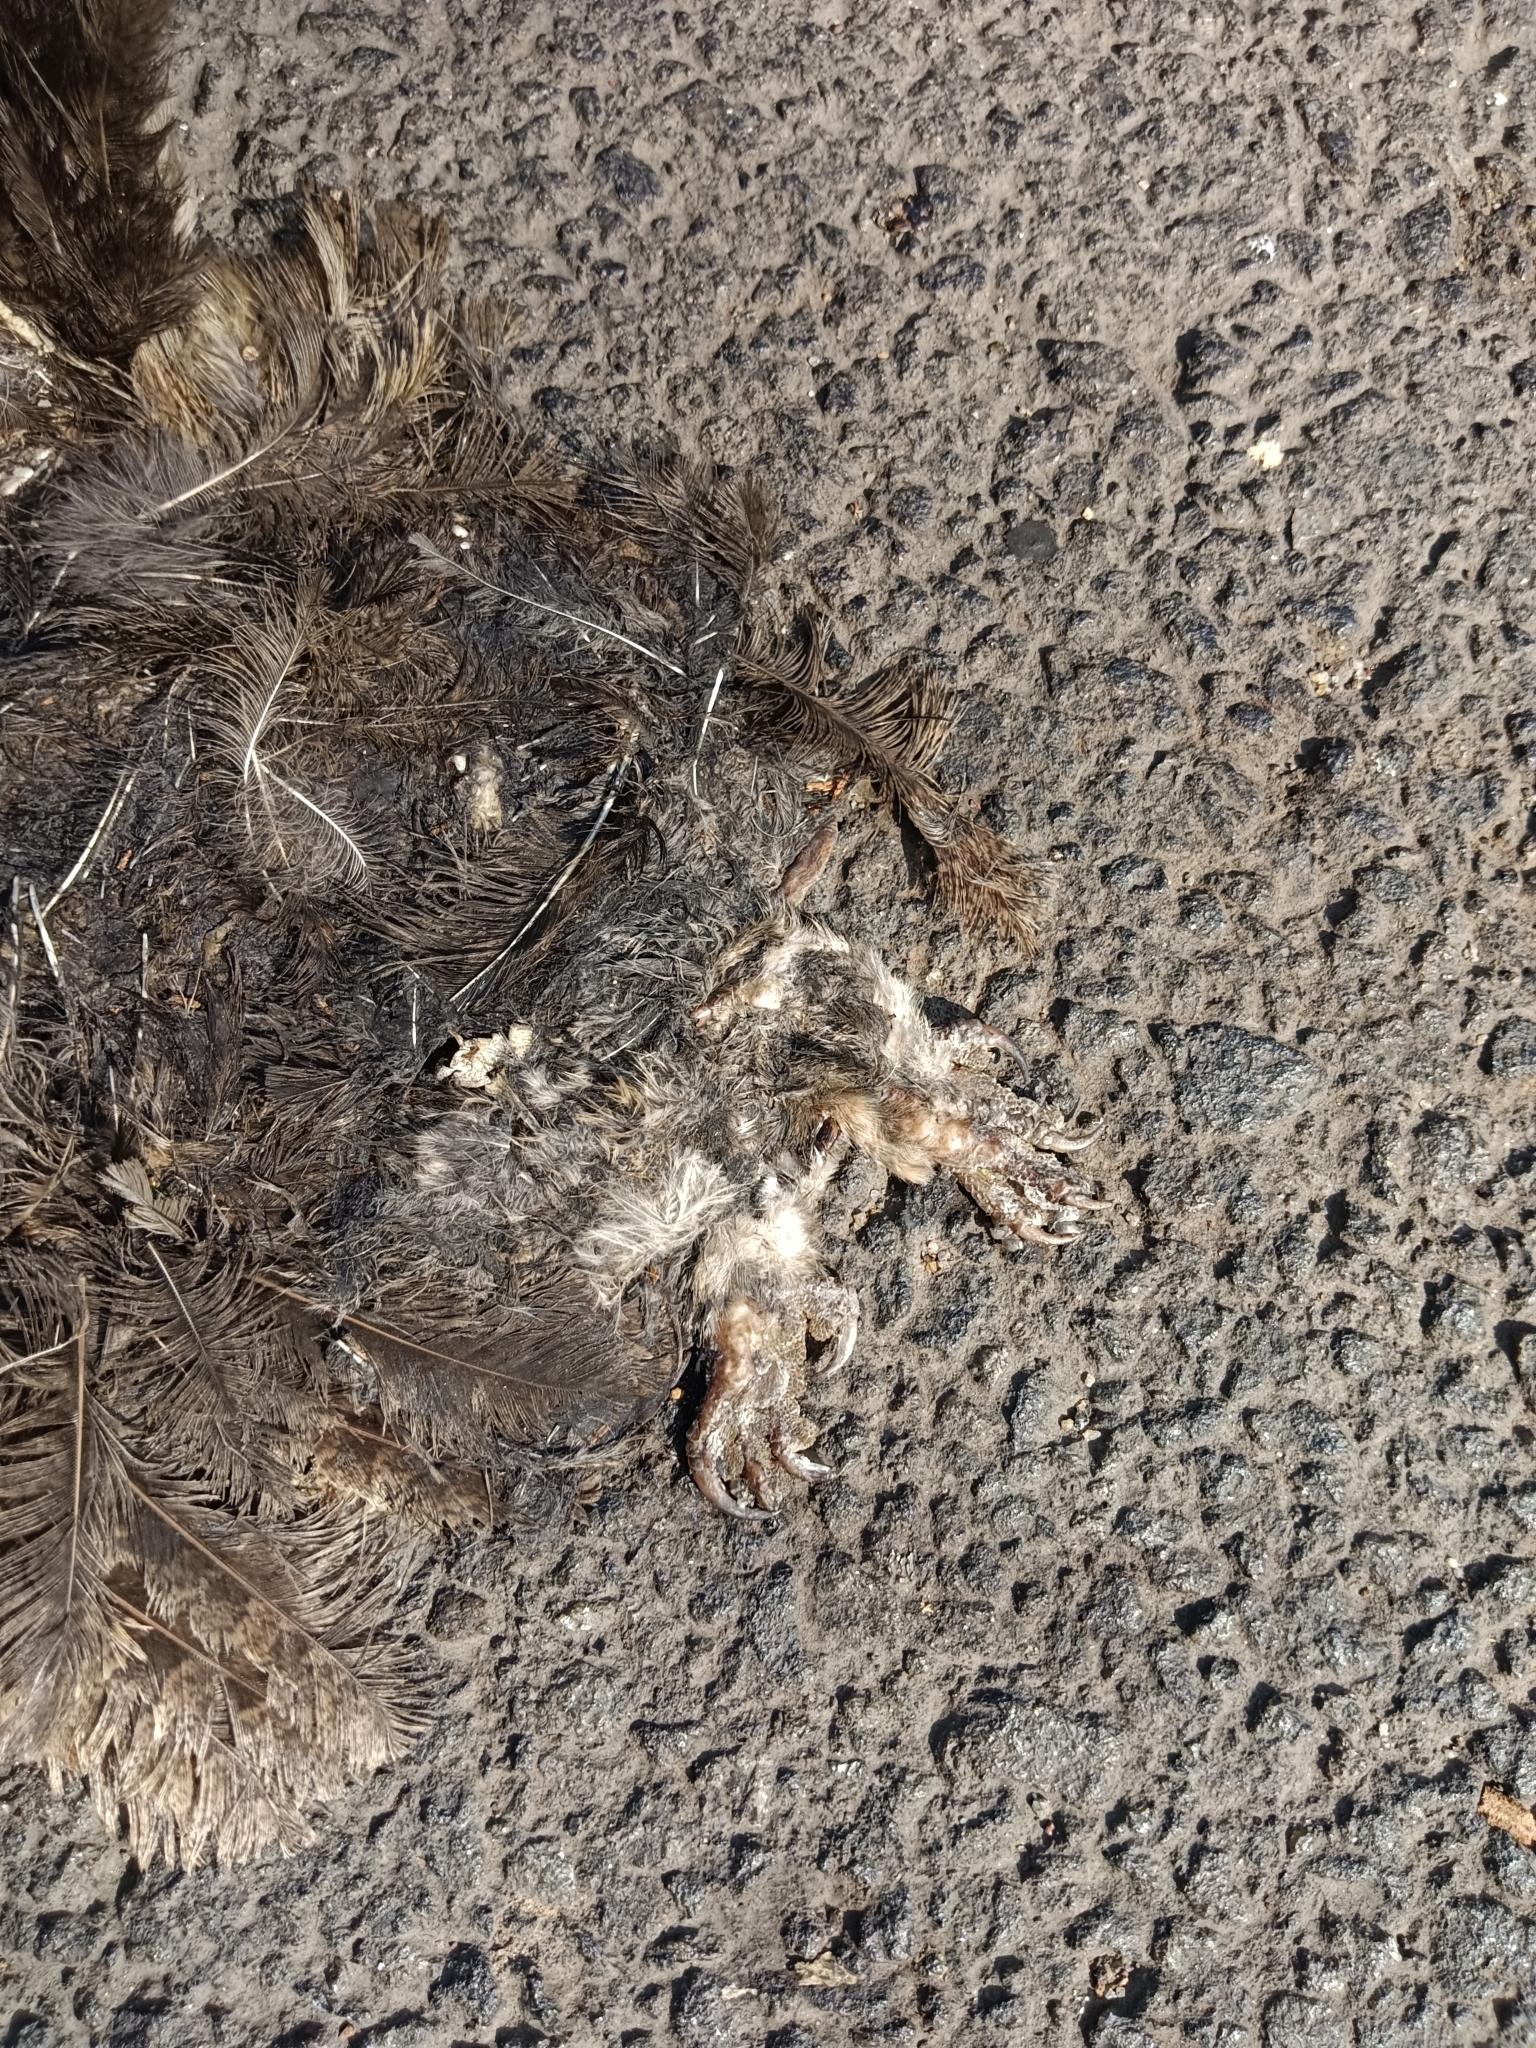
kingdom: Animalia
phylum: Chordata
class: Aves
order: Strigiformes
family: Strigidae
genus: Otus
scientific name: Otus bakkamoena
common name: Indian scops owl
